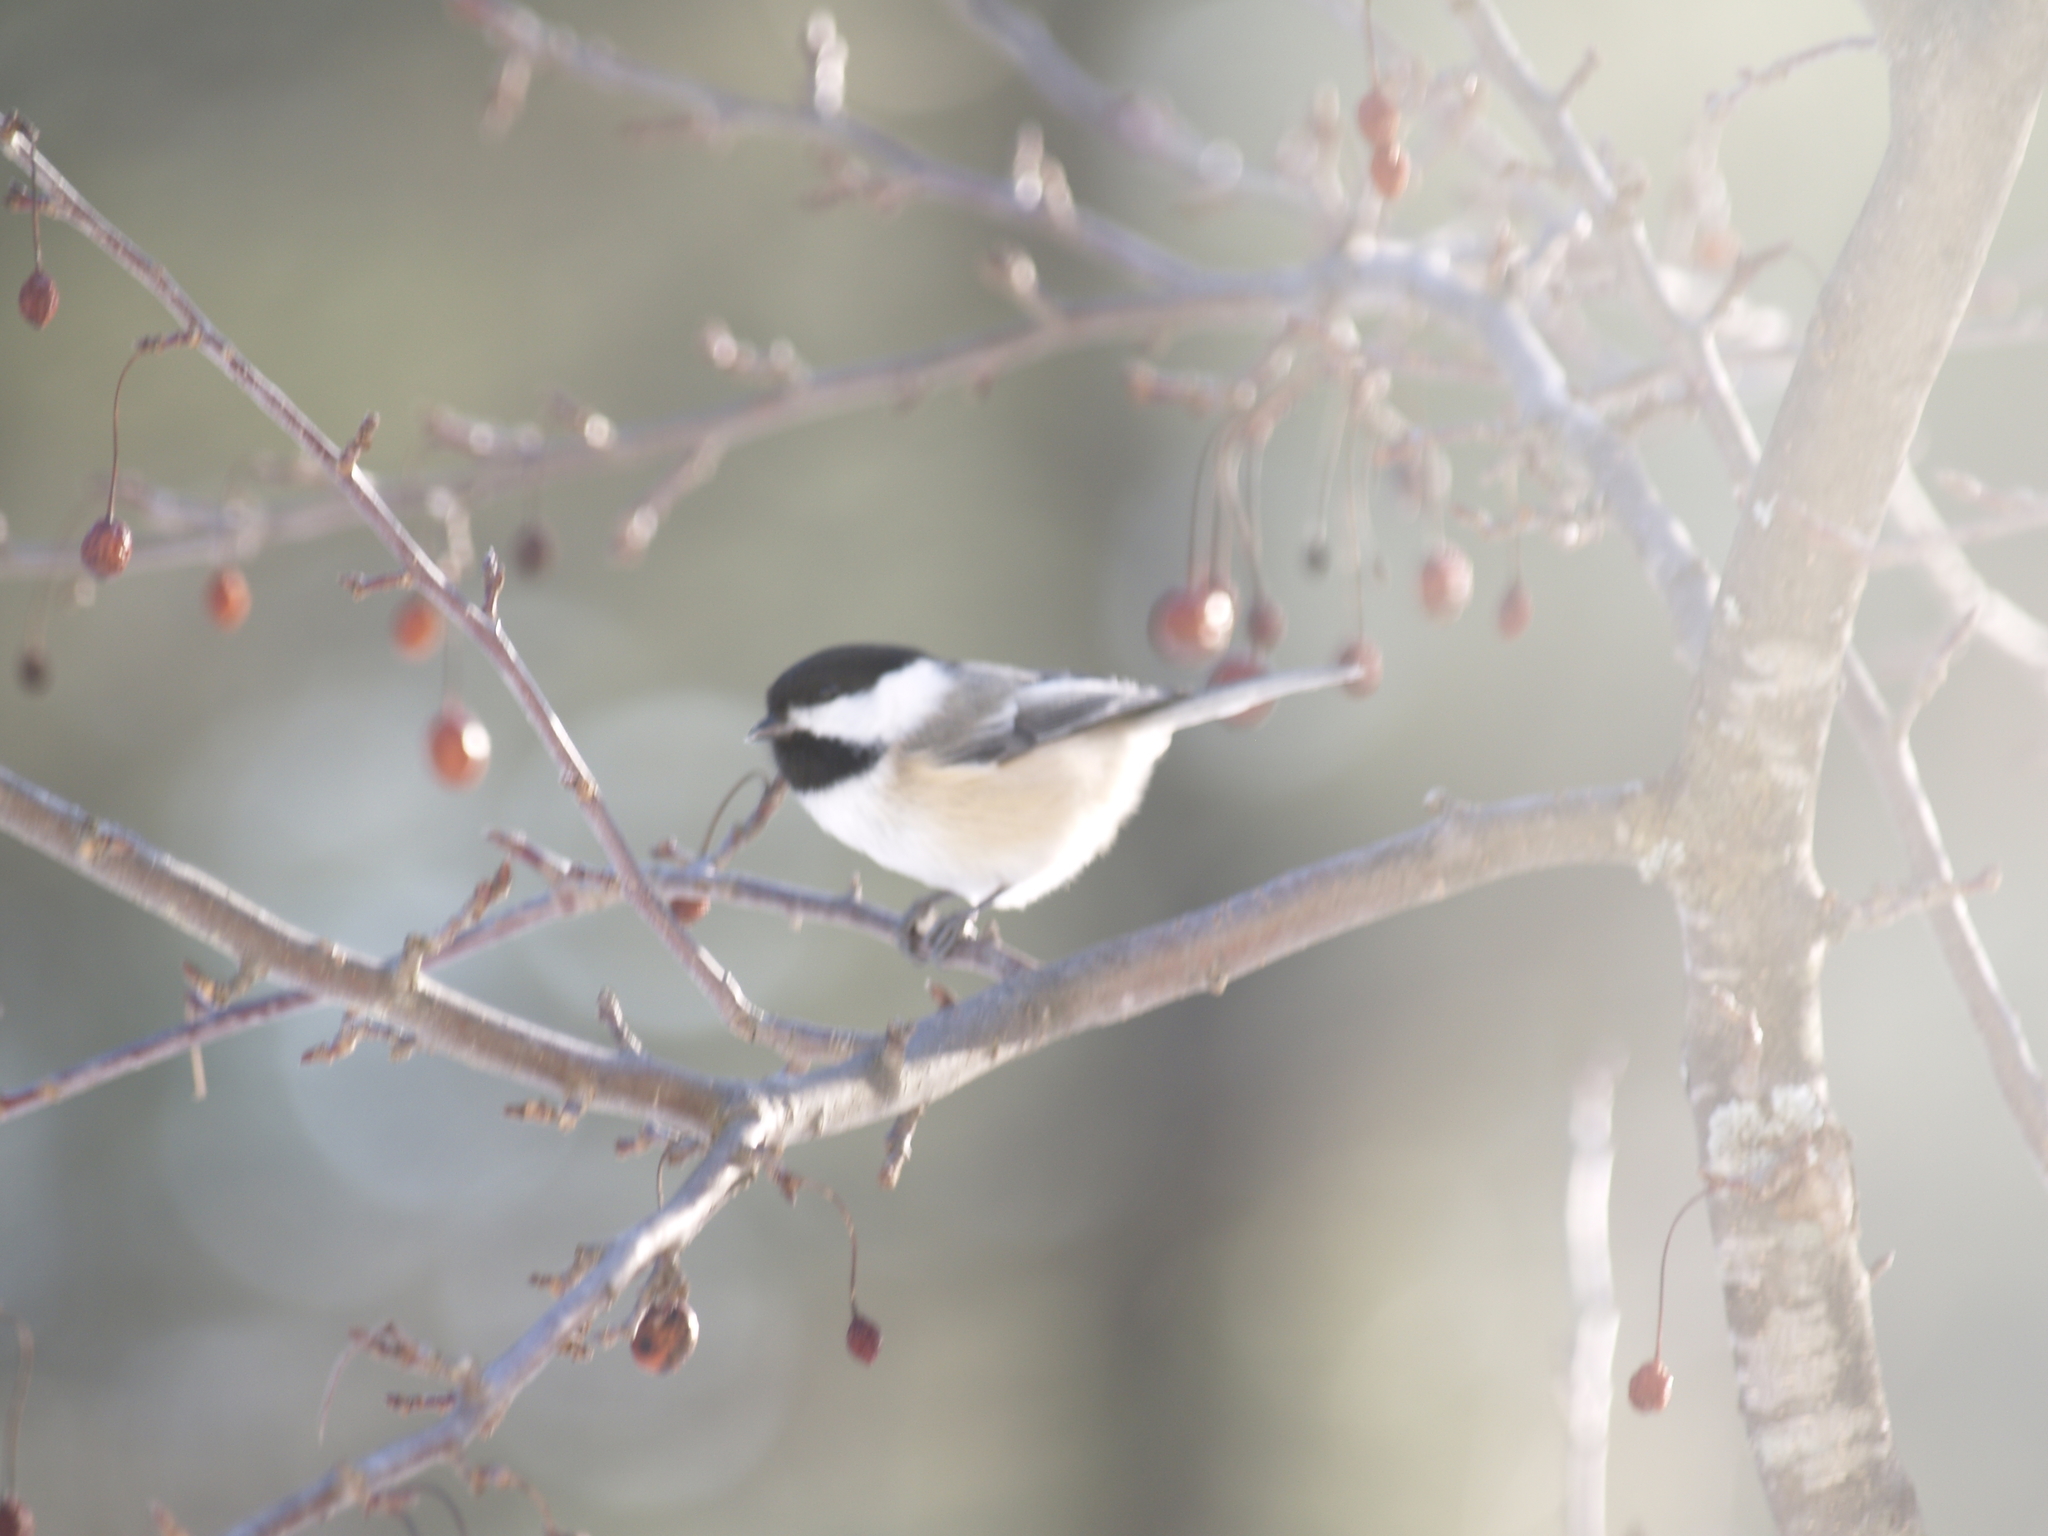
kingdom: Animalia
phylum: Chordata
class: Aves
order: Passeriformes
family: Paridae
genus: Poecile
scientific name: Poecile atricapillus
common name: Black-capped chickadee
